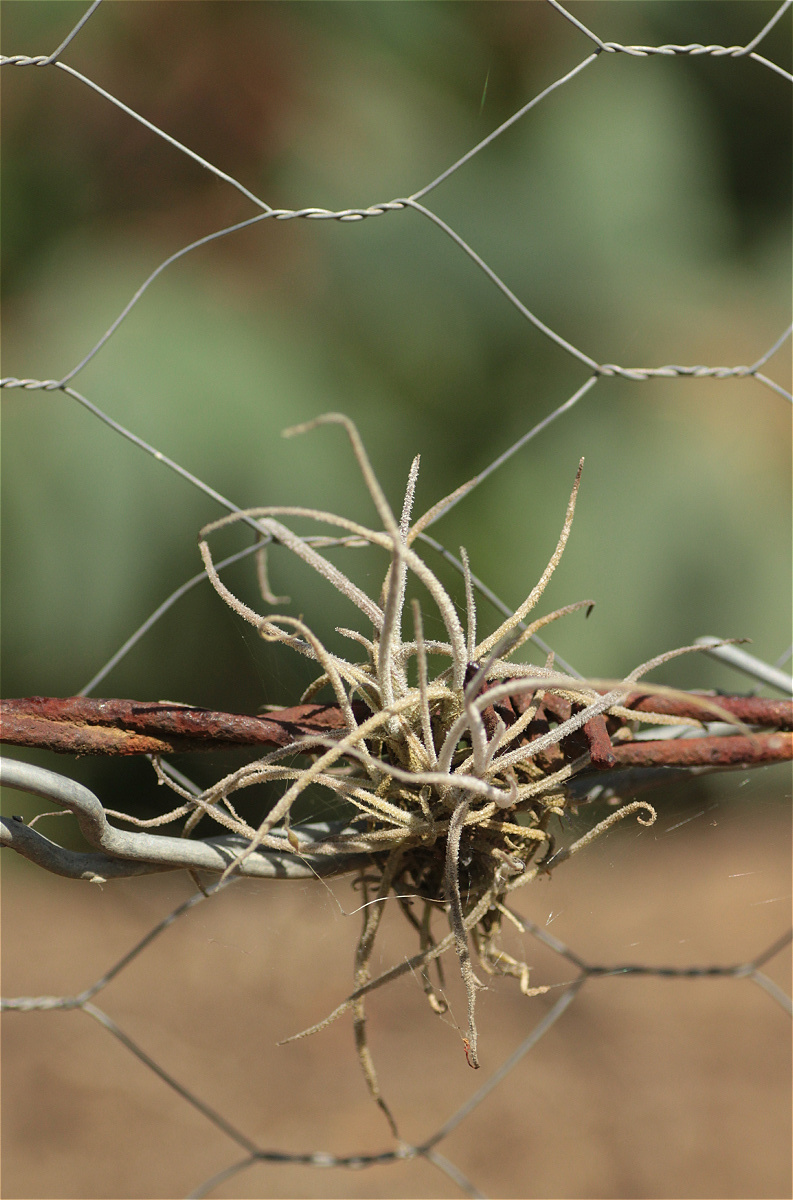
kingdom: Plantae
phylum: Tracheophyta
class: Liliopsida
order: Poales
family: Bromeliaceae
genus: Tillandsia
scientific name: Tillandsia recurvata
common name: Small ballmoss
